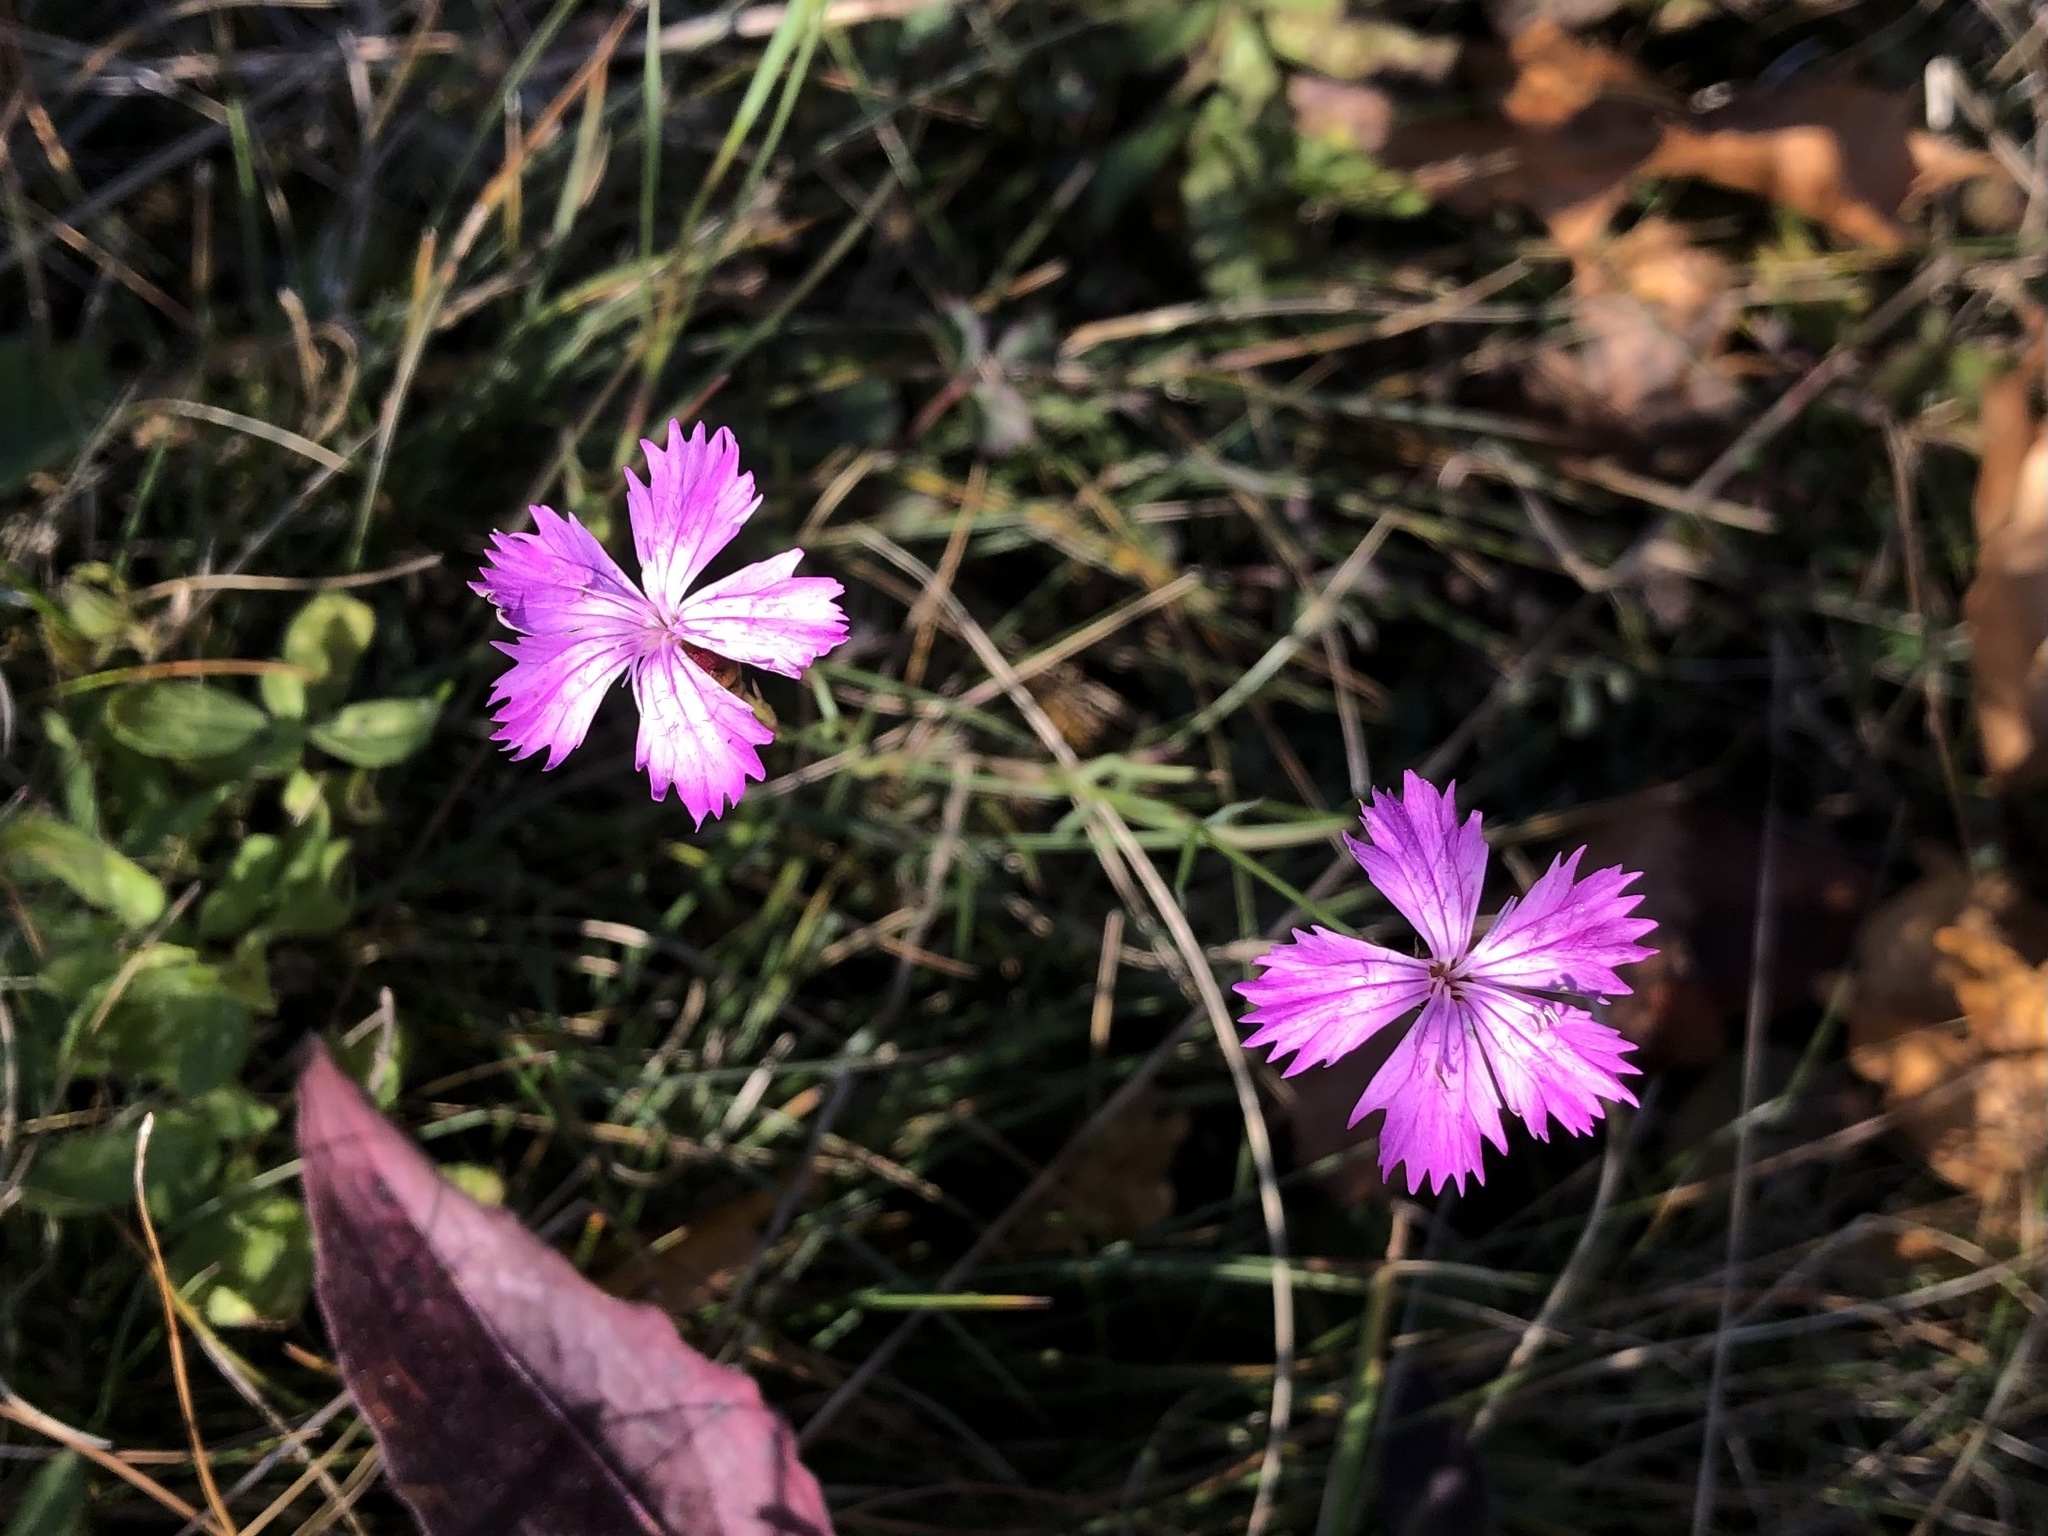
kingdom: Plantae
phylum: Tracheophyta
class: Magnoliopsida
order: Caryophyllales
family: Caryophyllaceae
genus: Dianthus
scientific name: Dianthus carthusianorum
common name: Carthusian pink
